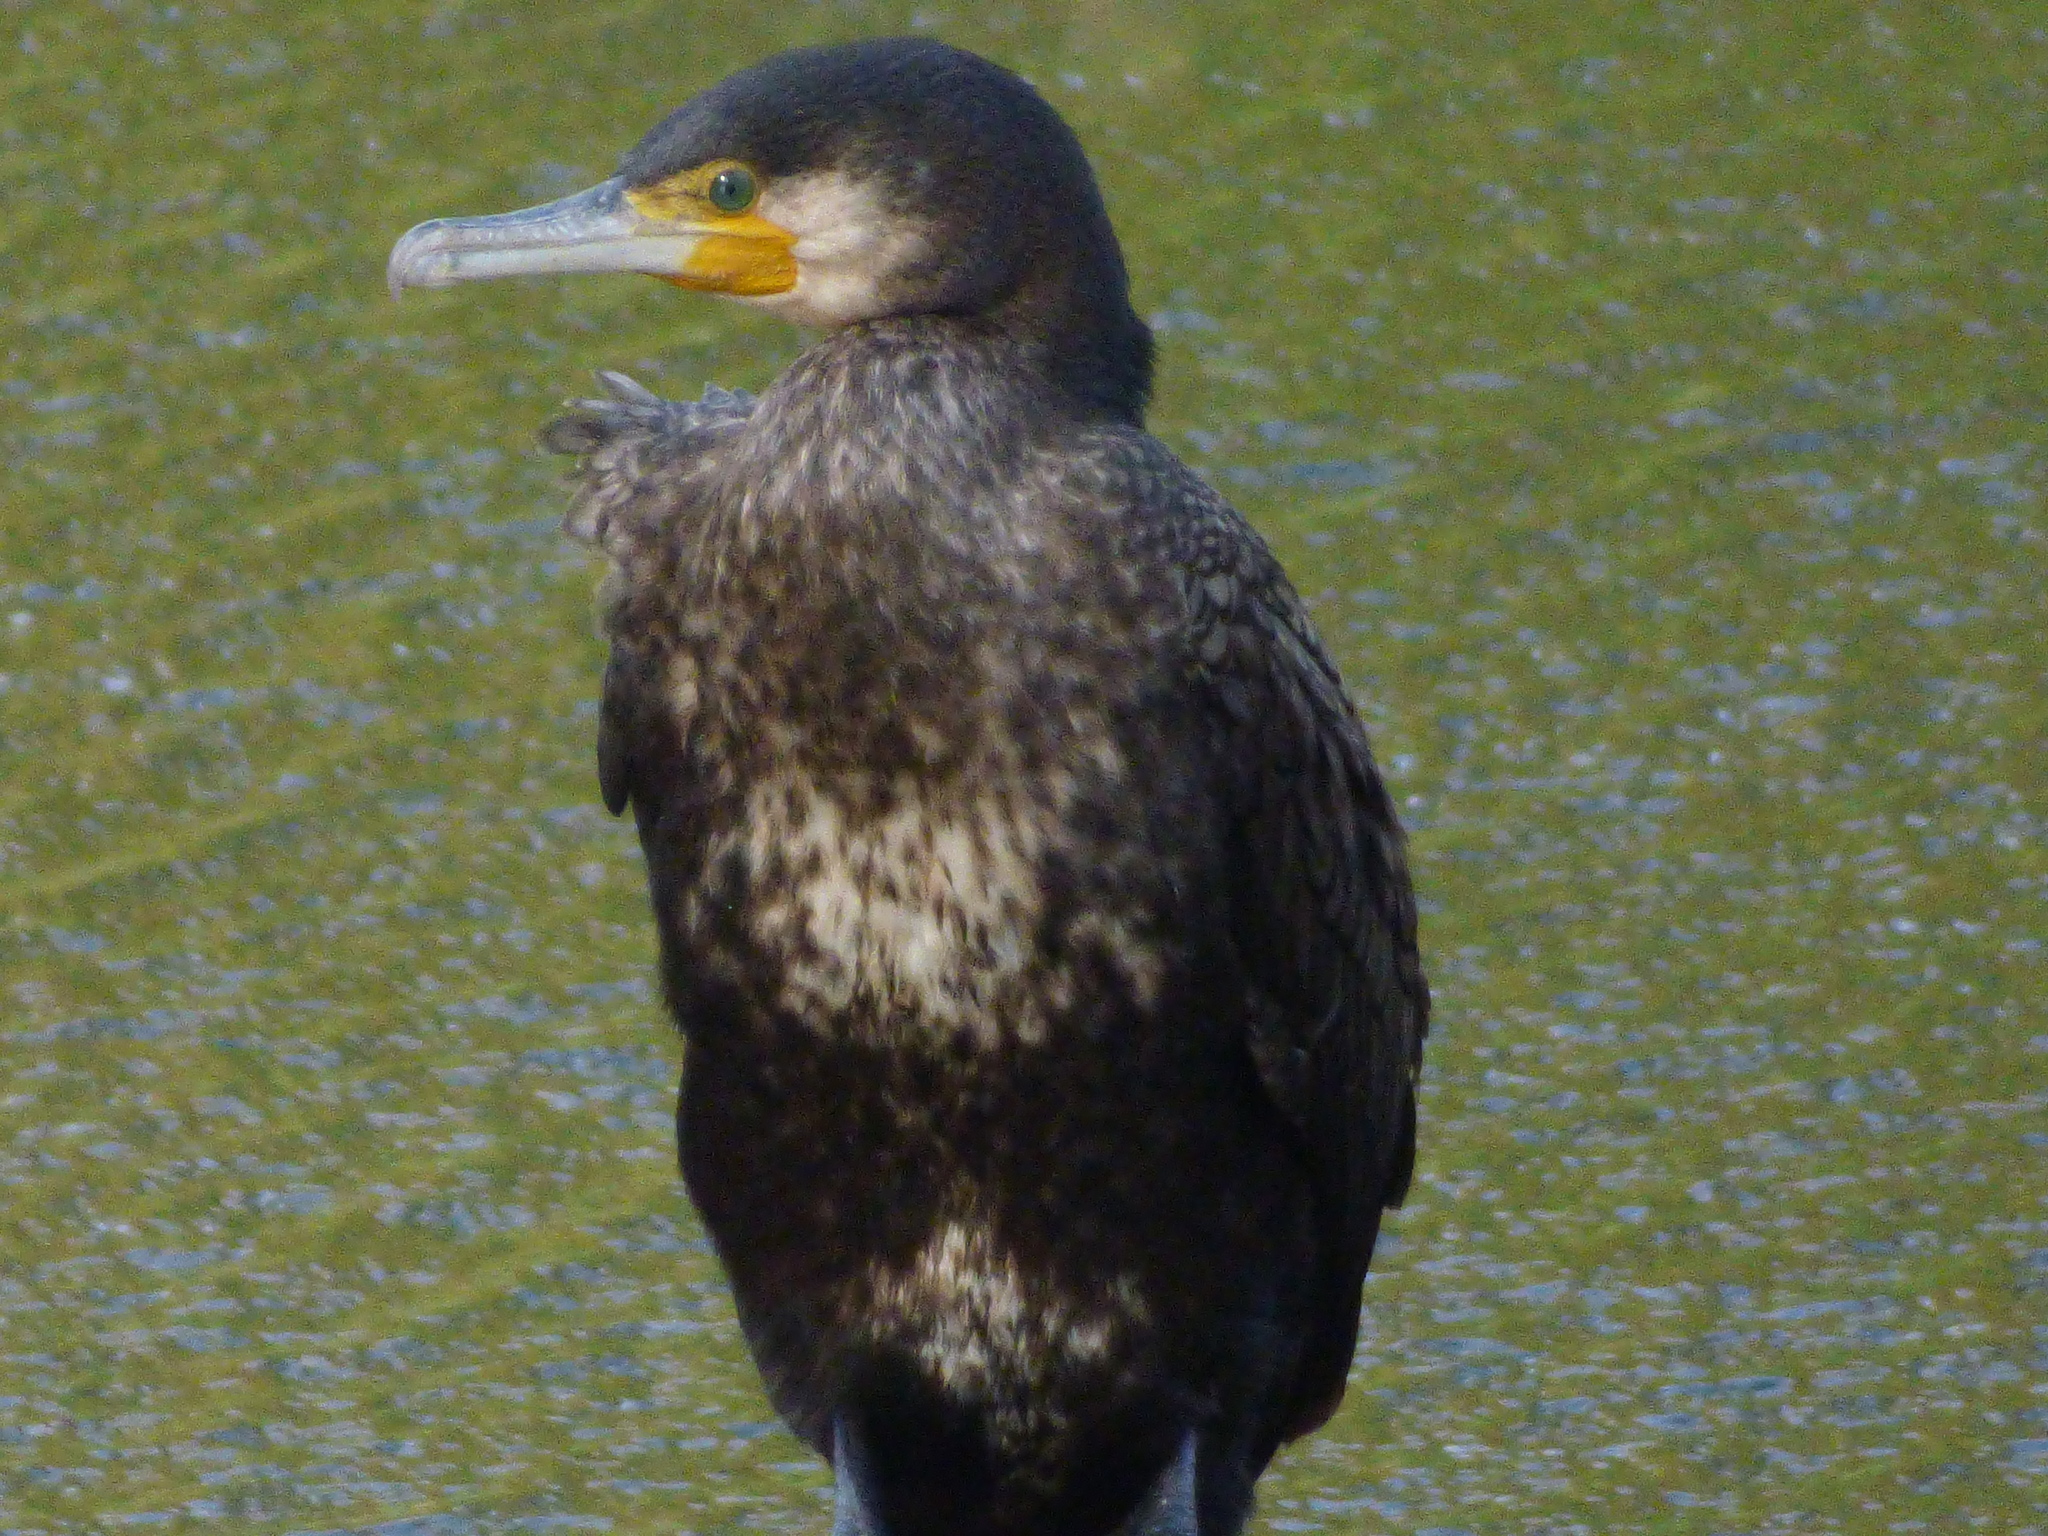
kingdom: Animalia
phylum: Chordata
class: Aves
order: Suliformes
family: Phalacrocoracidae
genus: Phalacrocorax
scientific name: Phalacrocorax carbo
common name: Great cormorant
